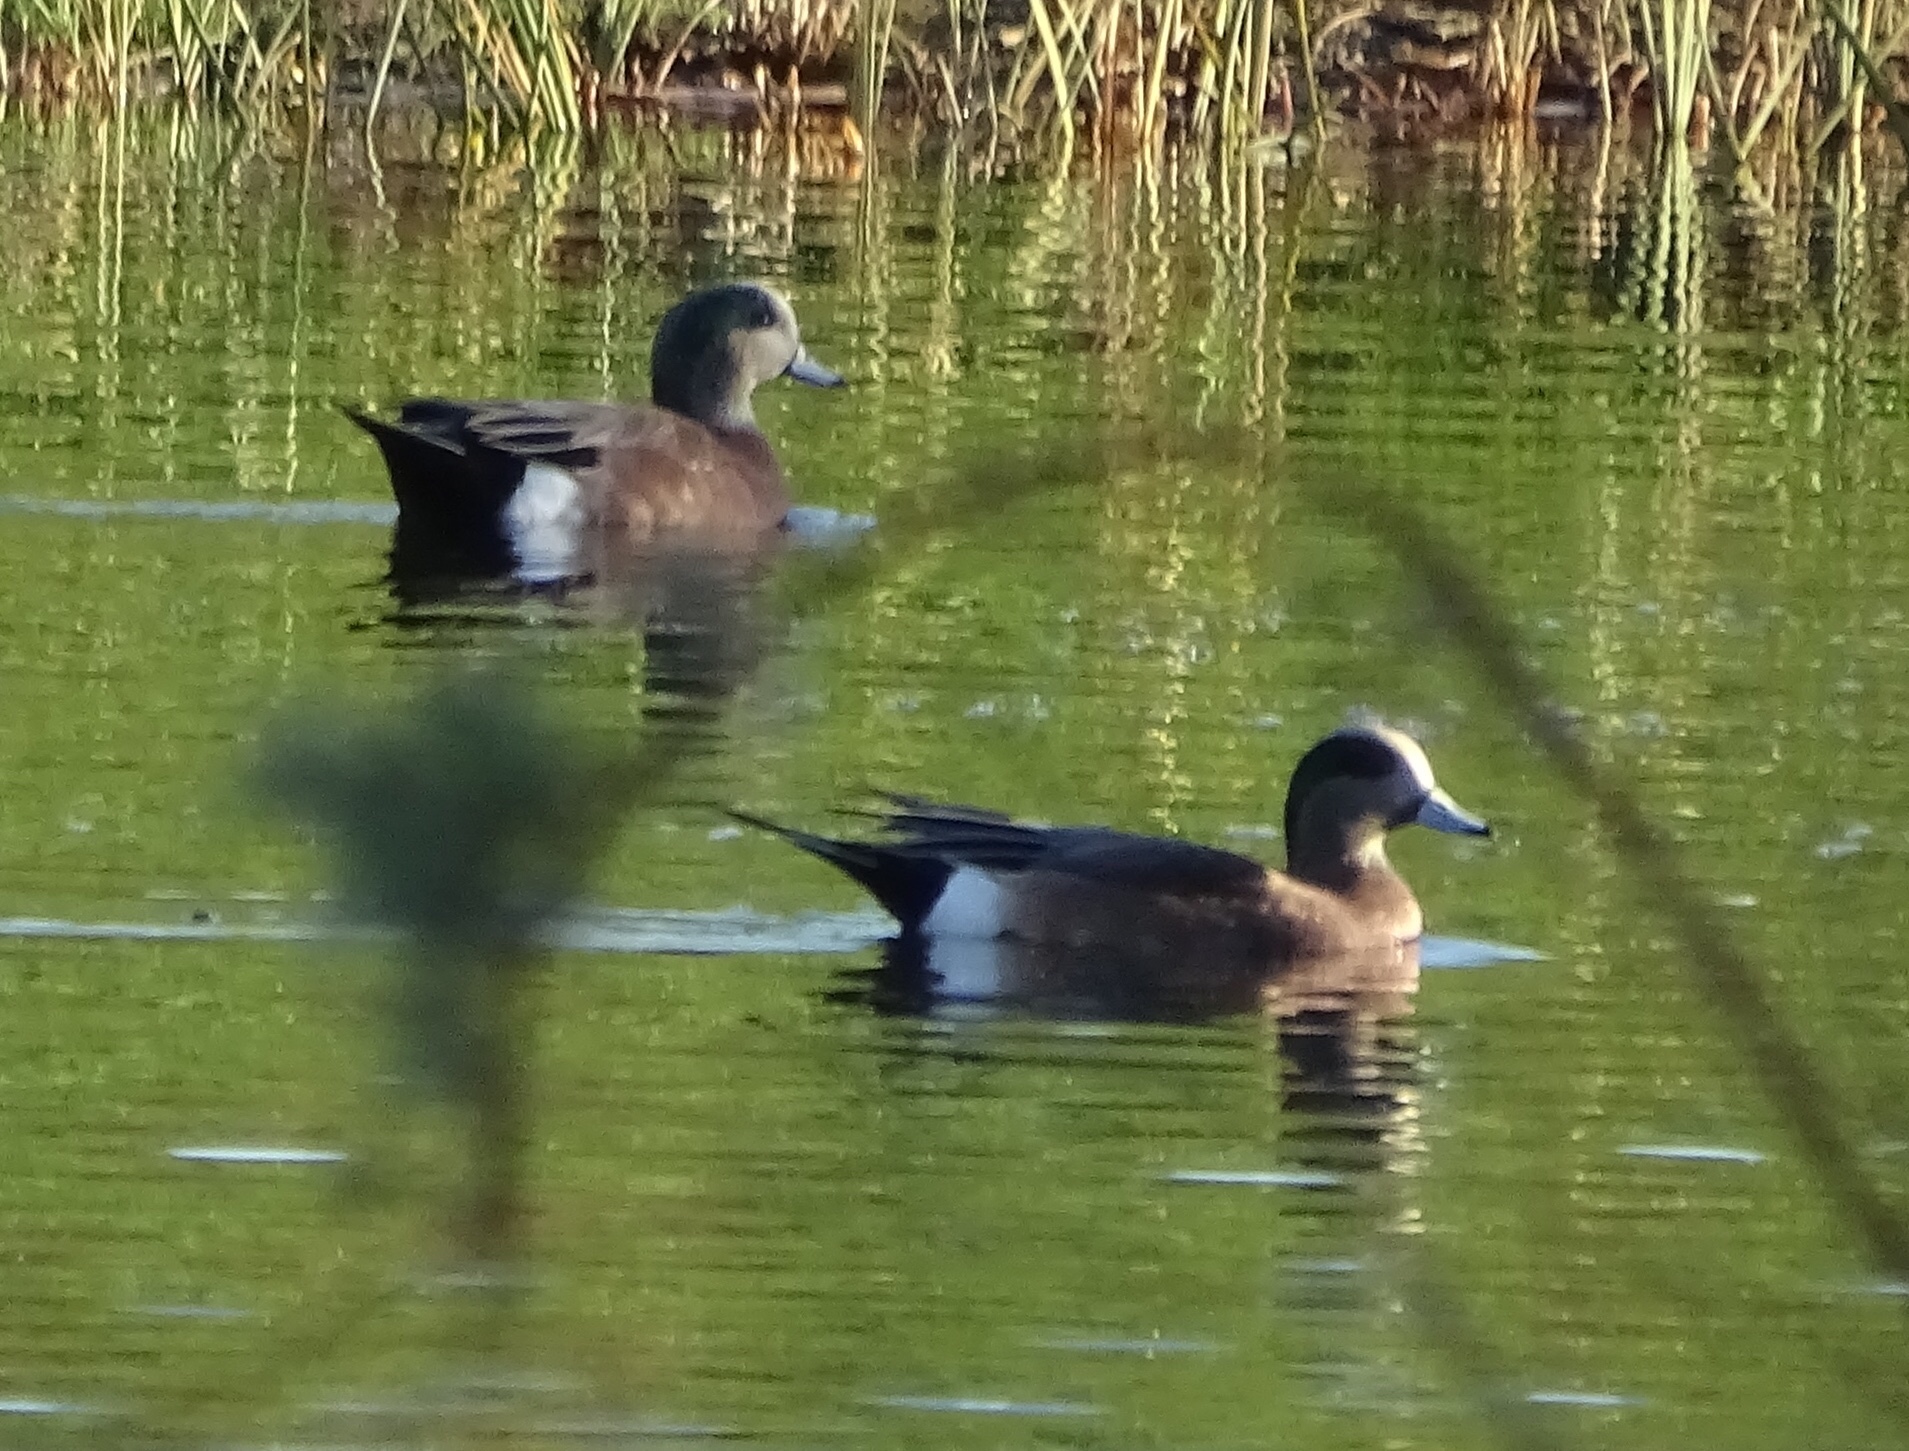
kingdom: Animalia
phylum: Chordata
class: Aves
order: Anseriformes
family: Anatidae
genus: Mareca
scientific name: Mareca americana
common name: American wigeon
